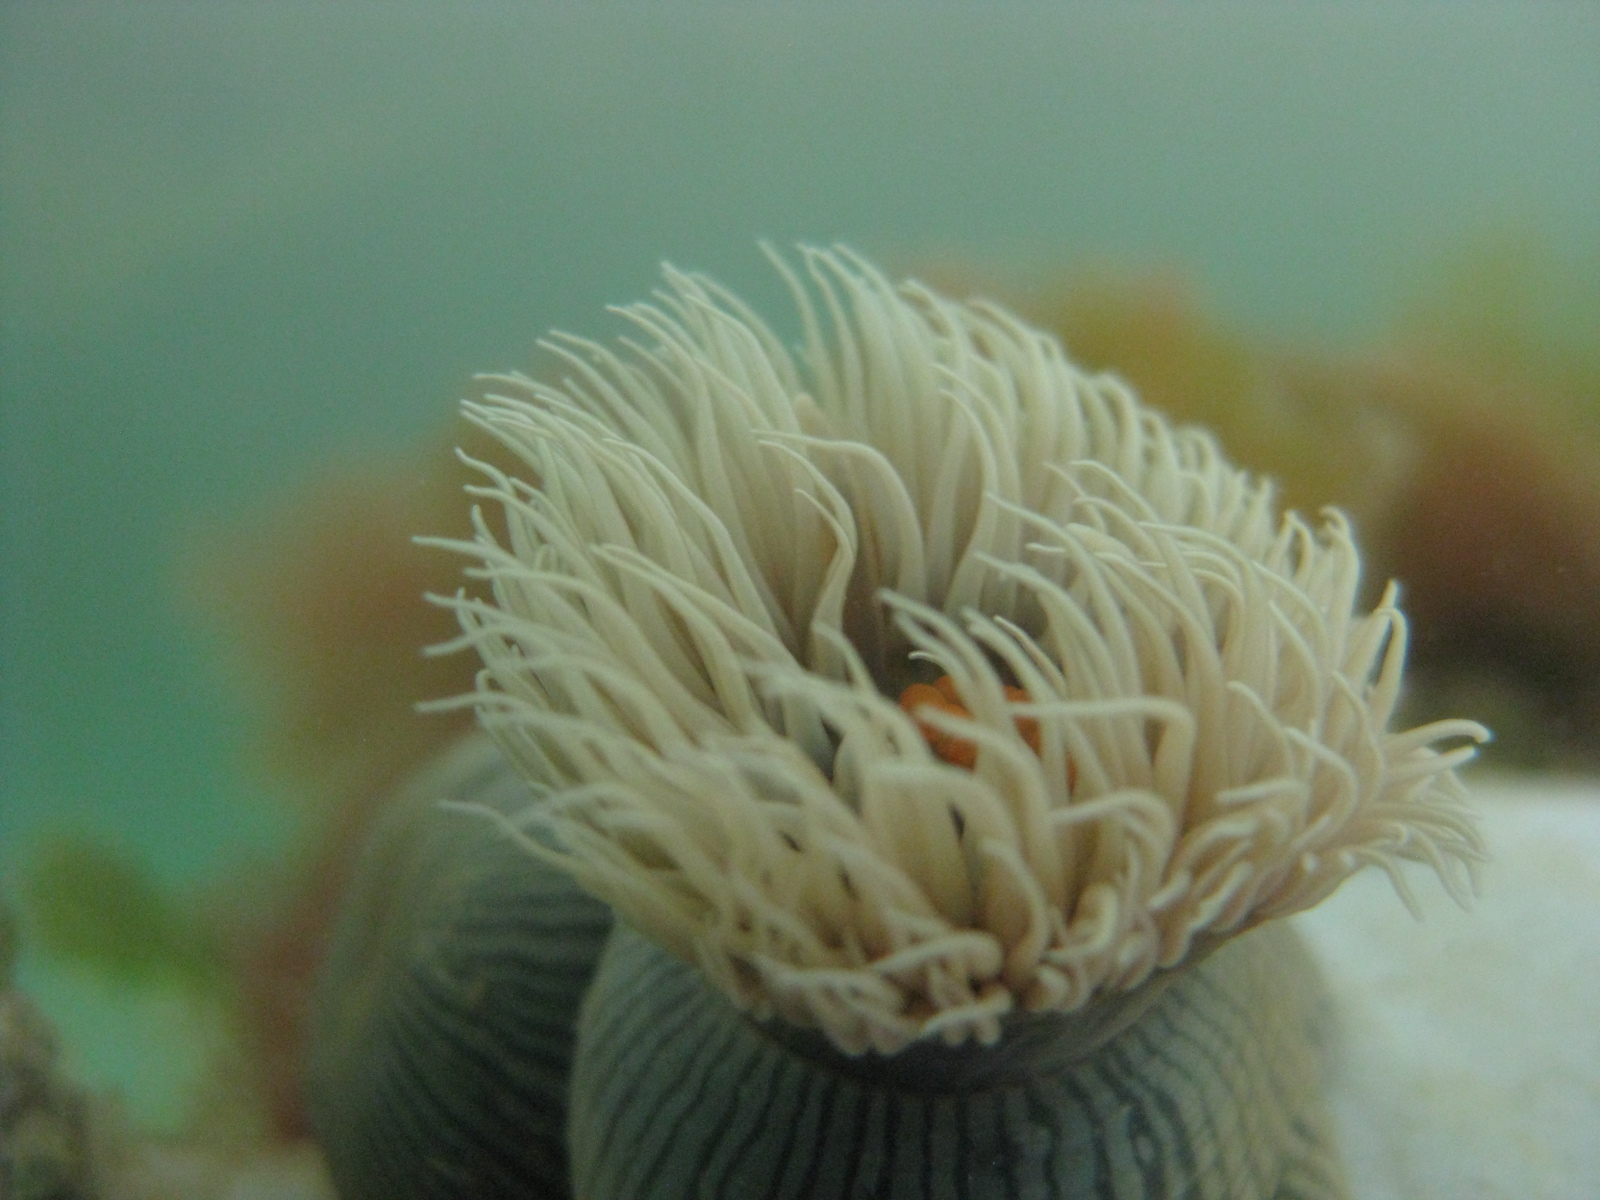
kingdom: Animalia
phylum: Cnidaria
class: Anthozoa
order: Actiniaria
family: Diadumenidae
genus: Diadumene
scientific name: Diadumene neozelanica
